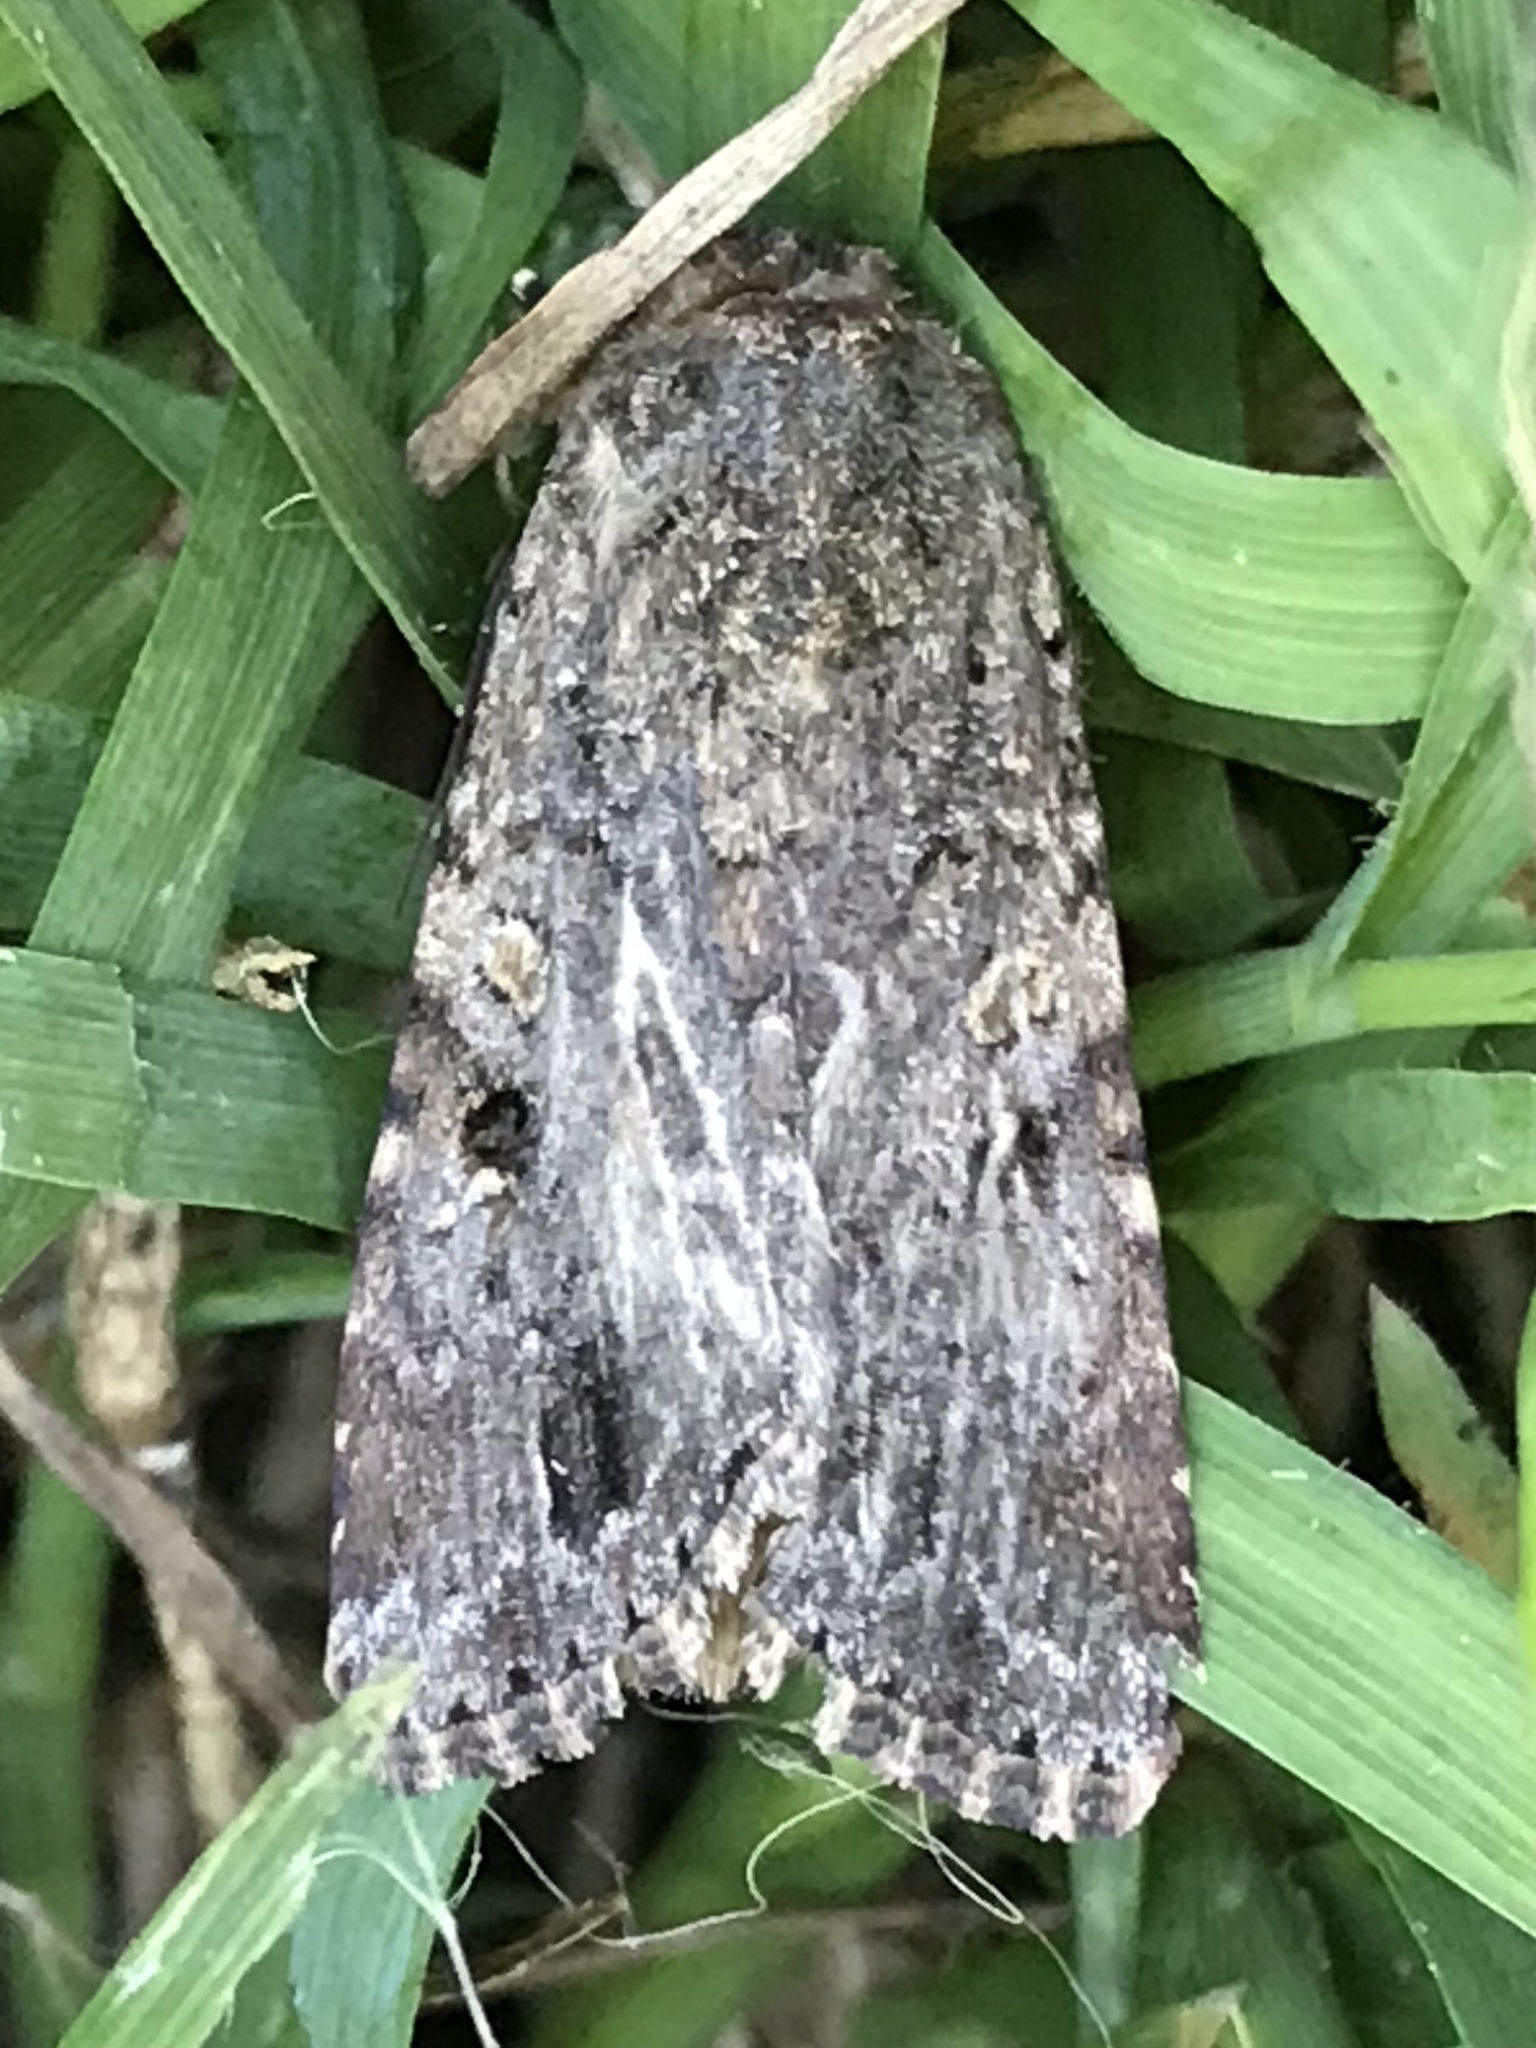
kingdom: Animalia
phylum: Arthropoda
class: Insecta
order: Lepidoptera
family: Noctuidae
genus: Spodoptera
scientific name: Spodoptera mauritia
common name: Lawn armyworm
